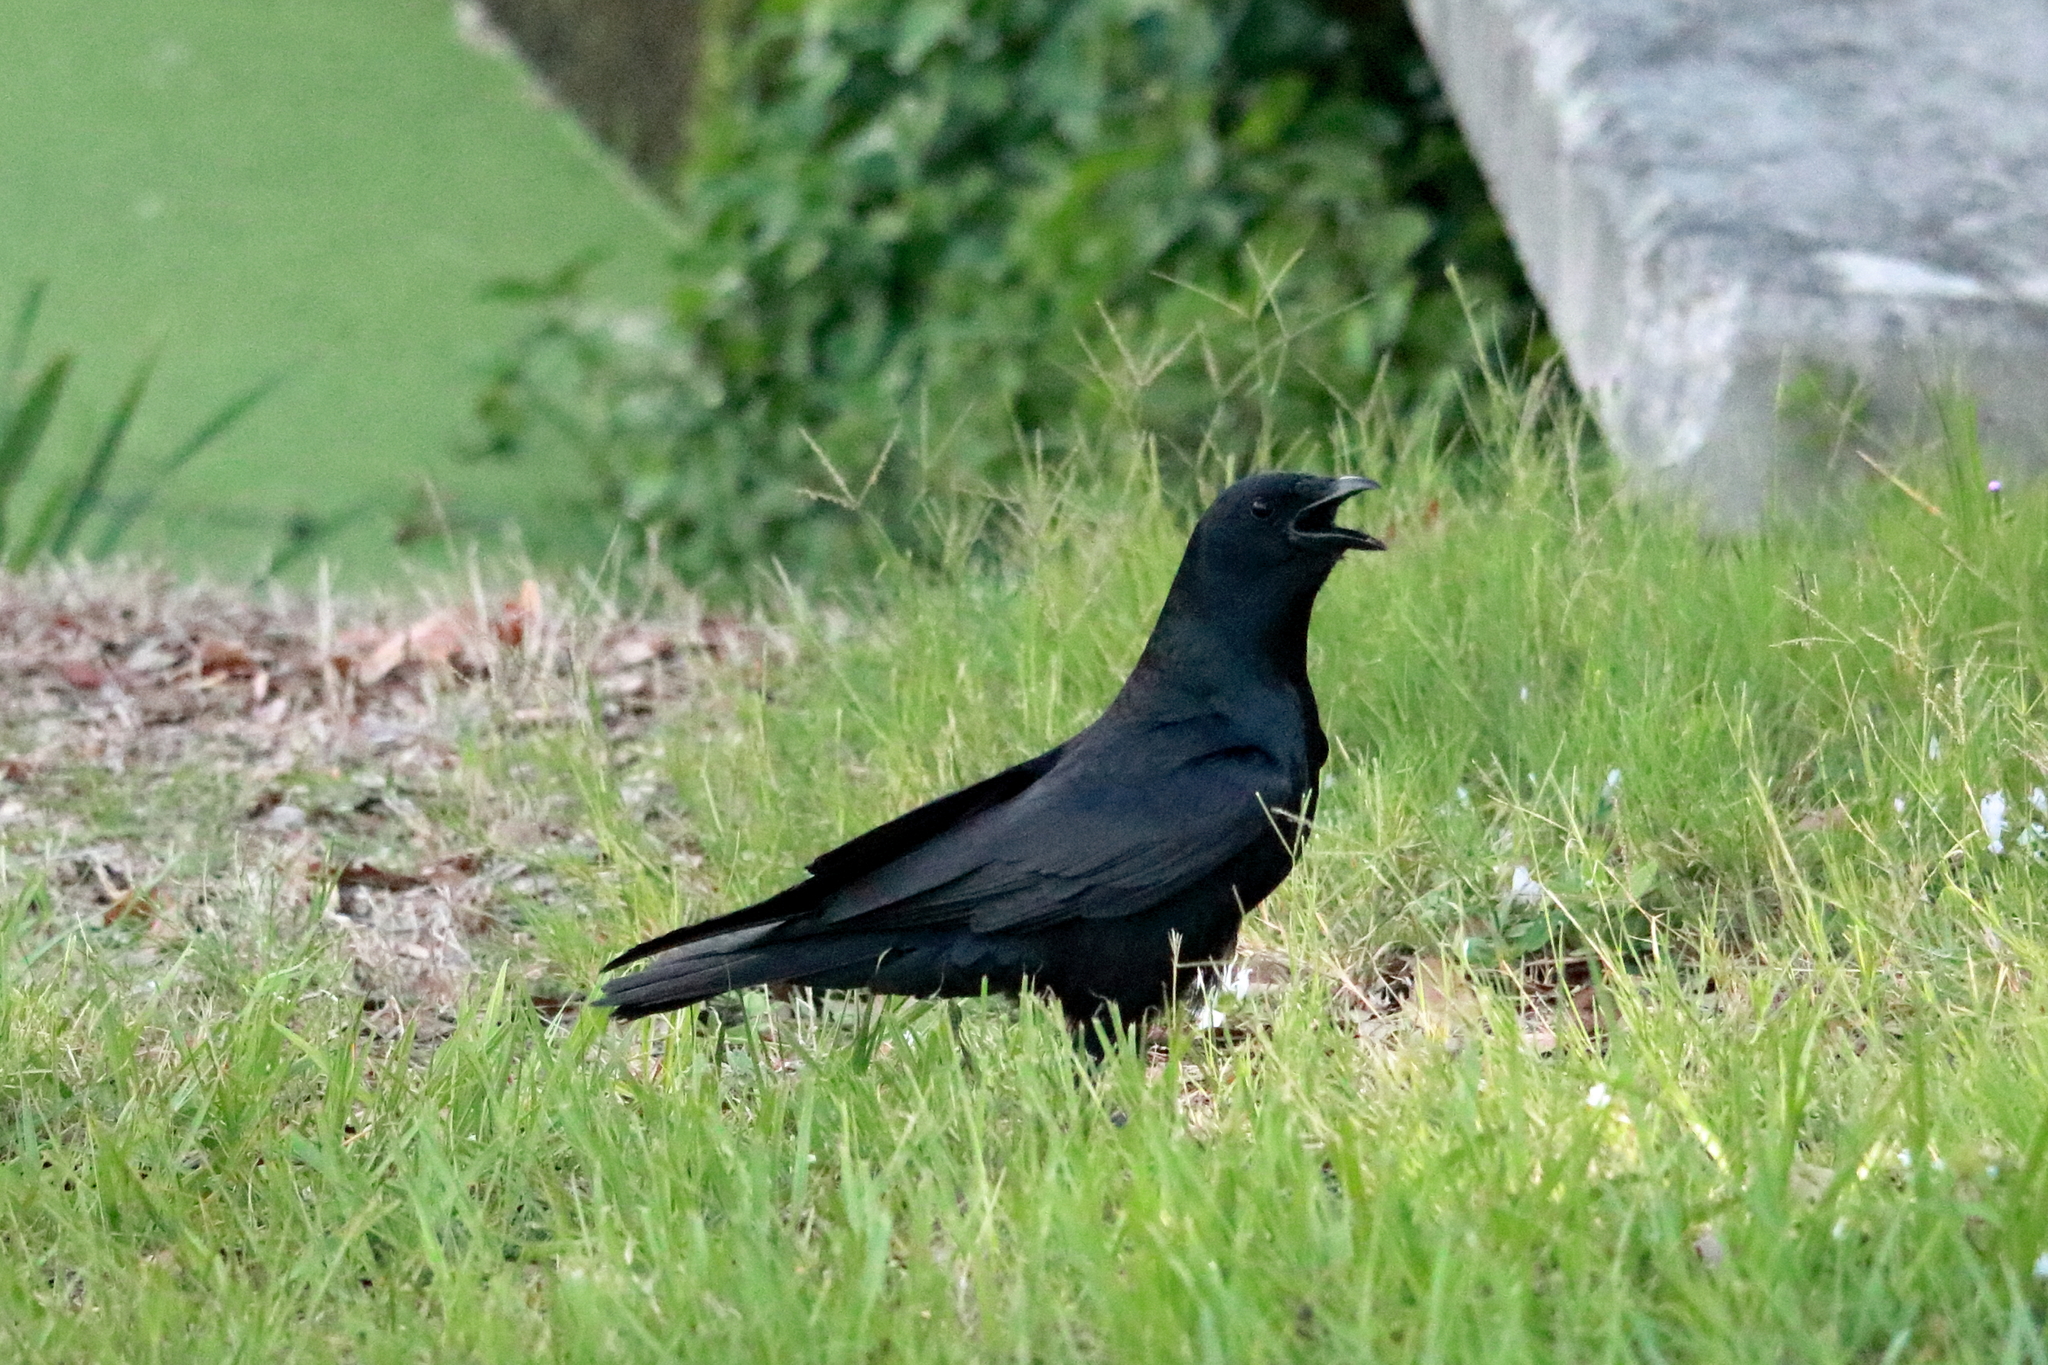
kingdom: Animalia
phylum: Chordata
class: Aves
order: Passeriformes
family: Corvidae
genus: Corvus
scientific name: Corvus ossifragus
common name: Fish crow
